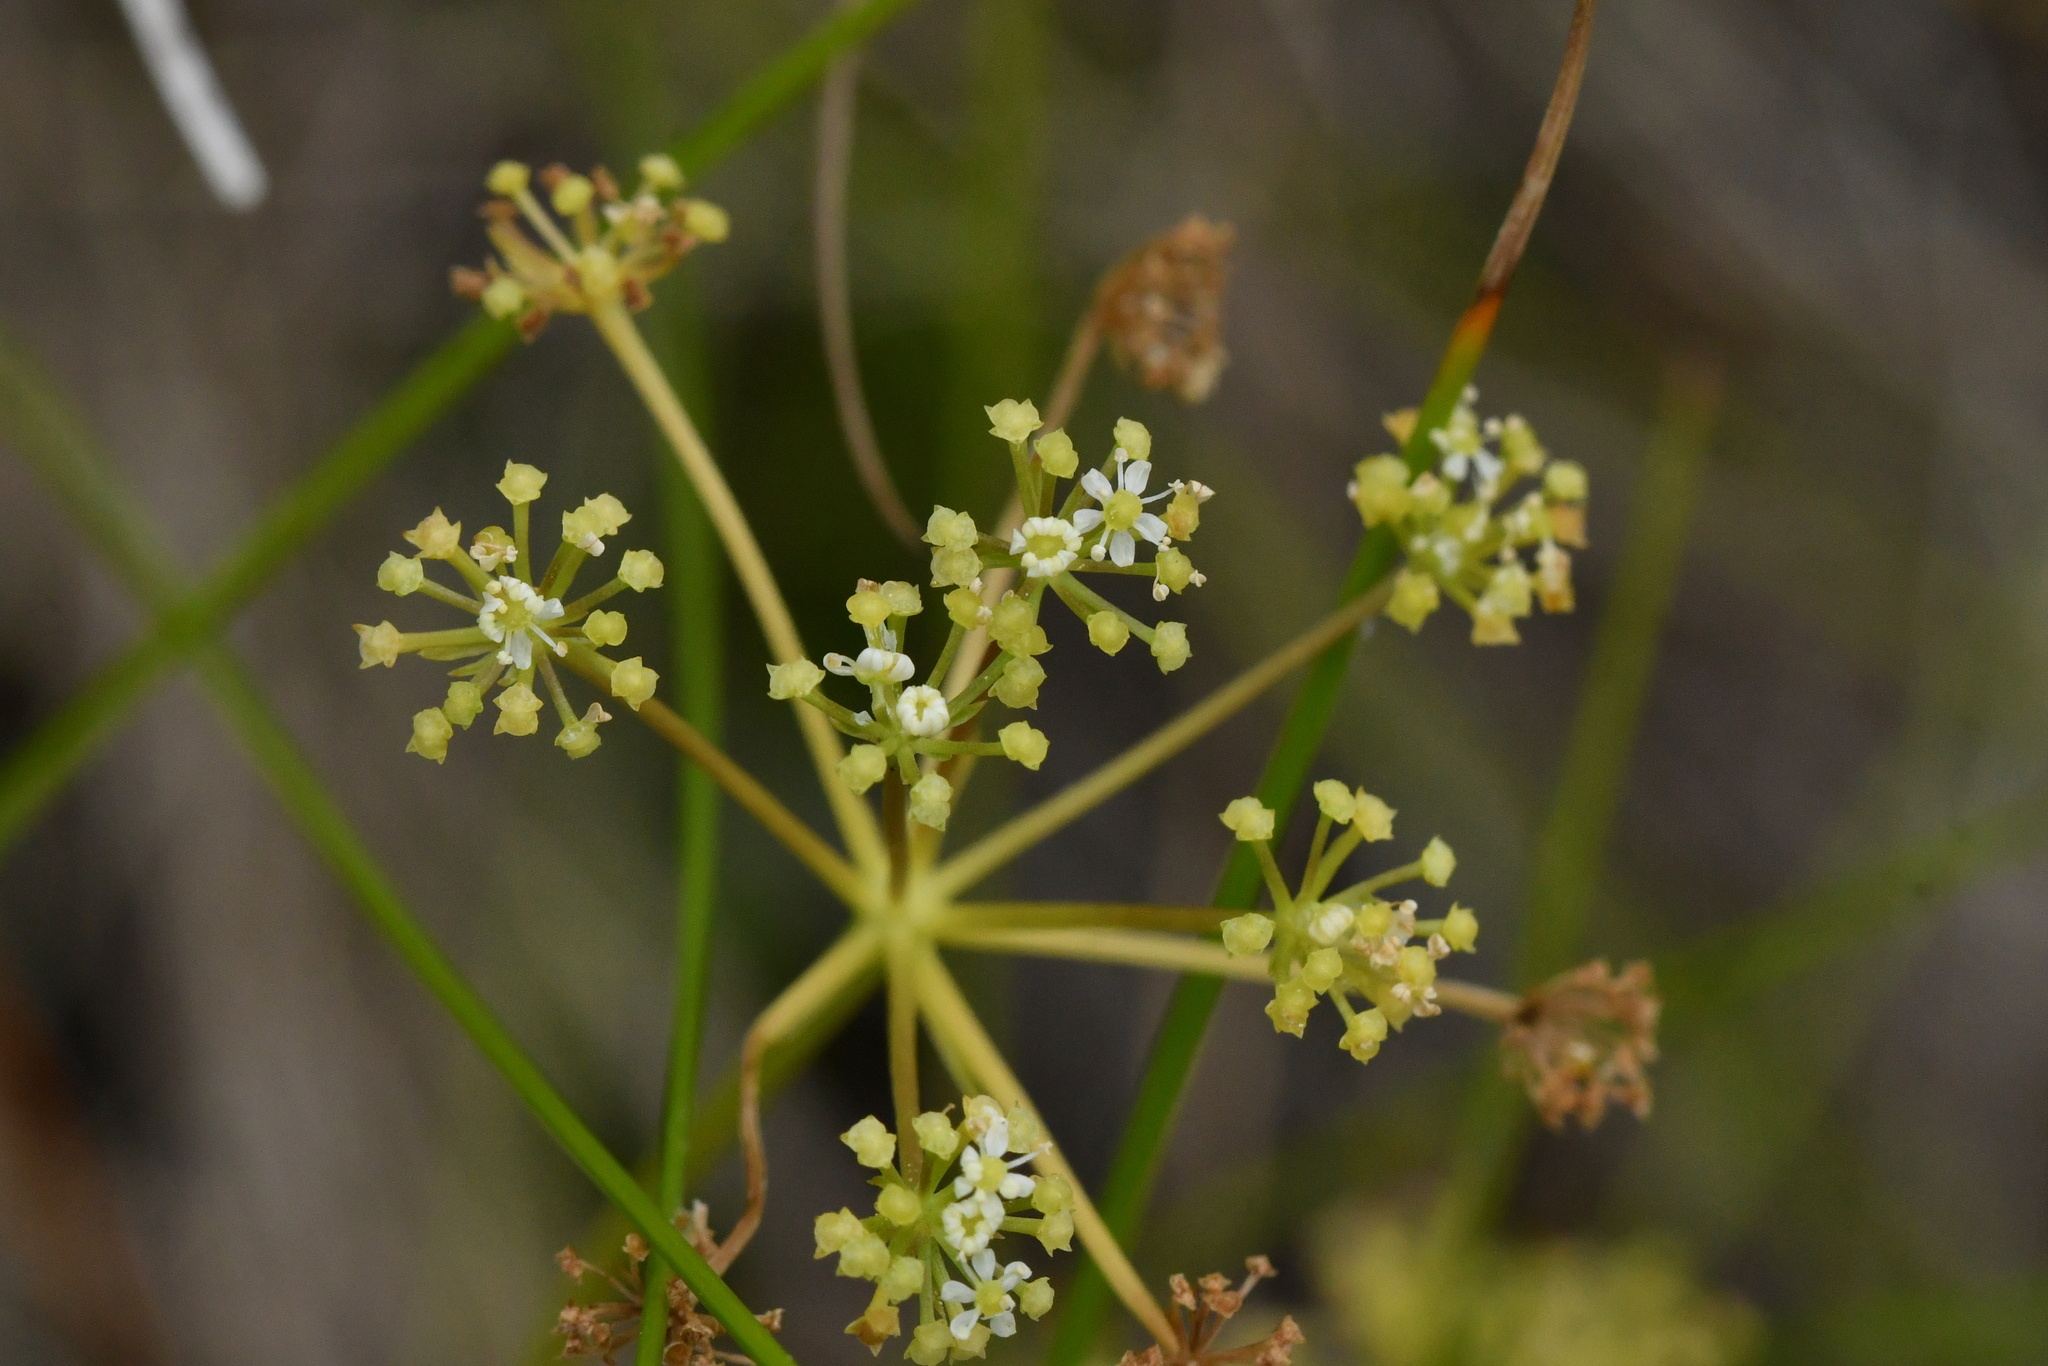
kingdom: Plantae
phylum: Tracheophyta
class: Magnoliopsida
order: Apiales
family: Apiaceae
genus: Anisotome
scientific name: Anisotome aromatica
